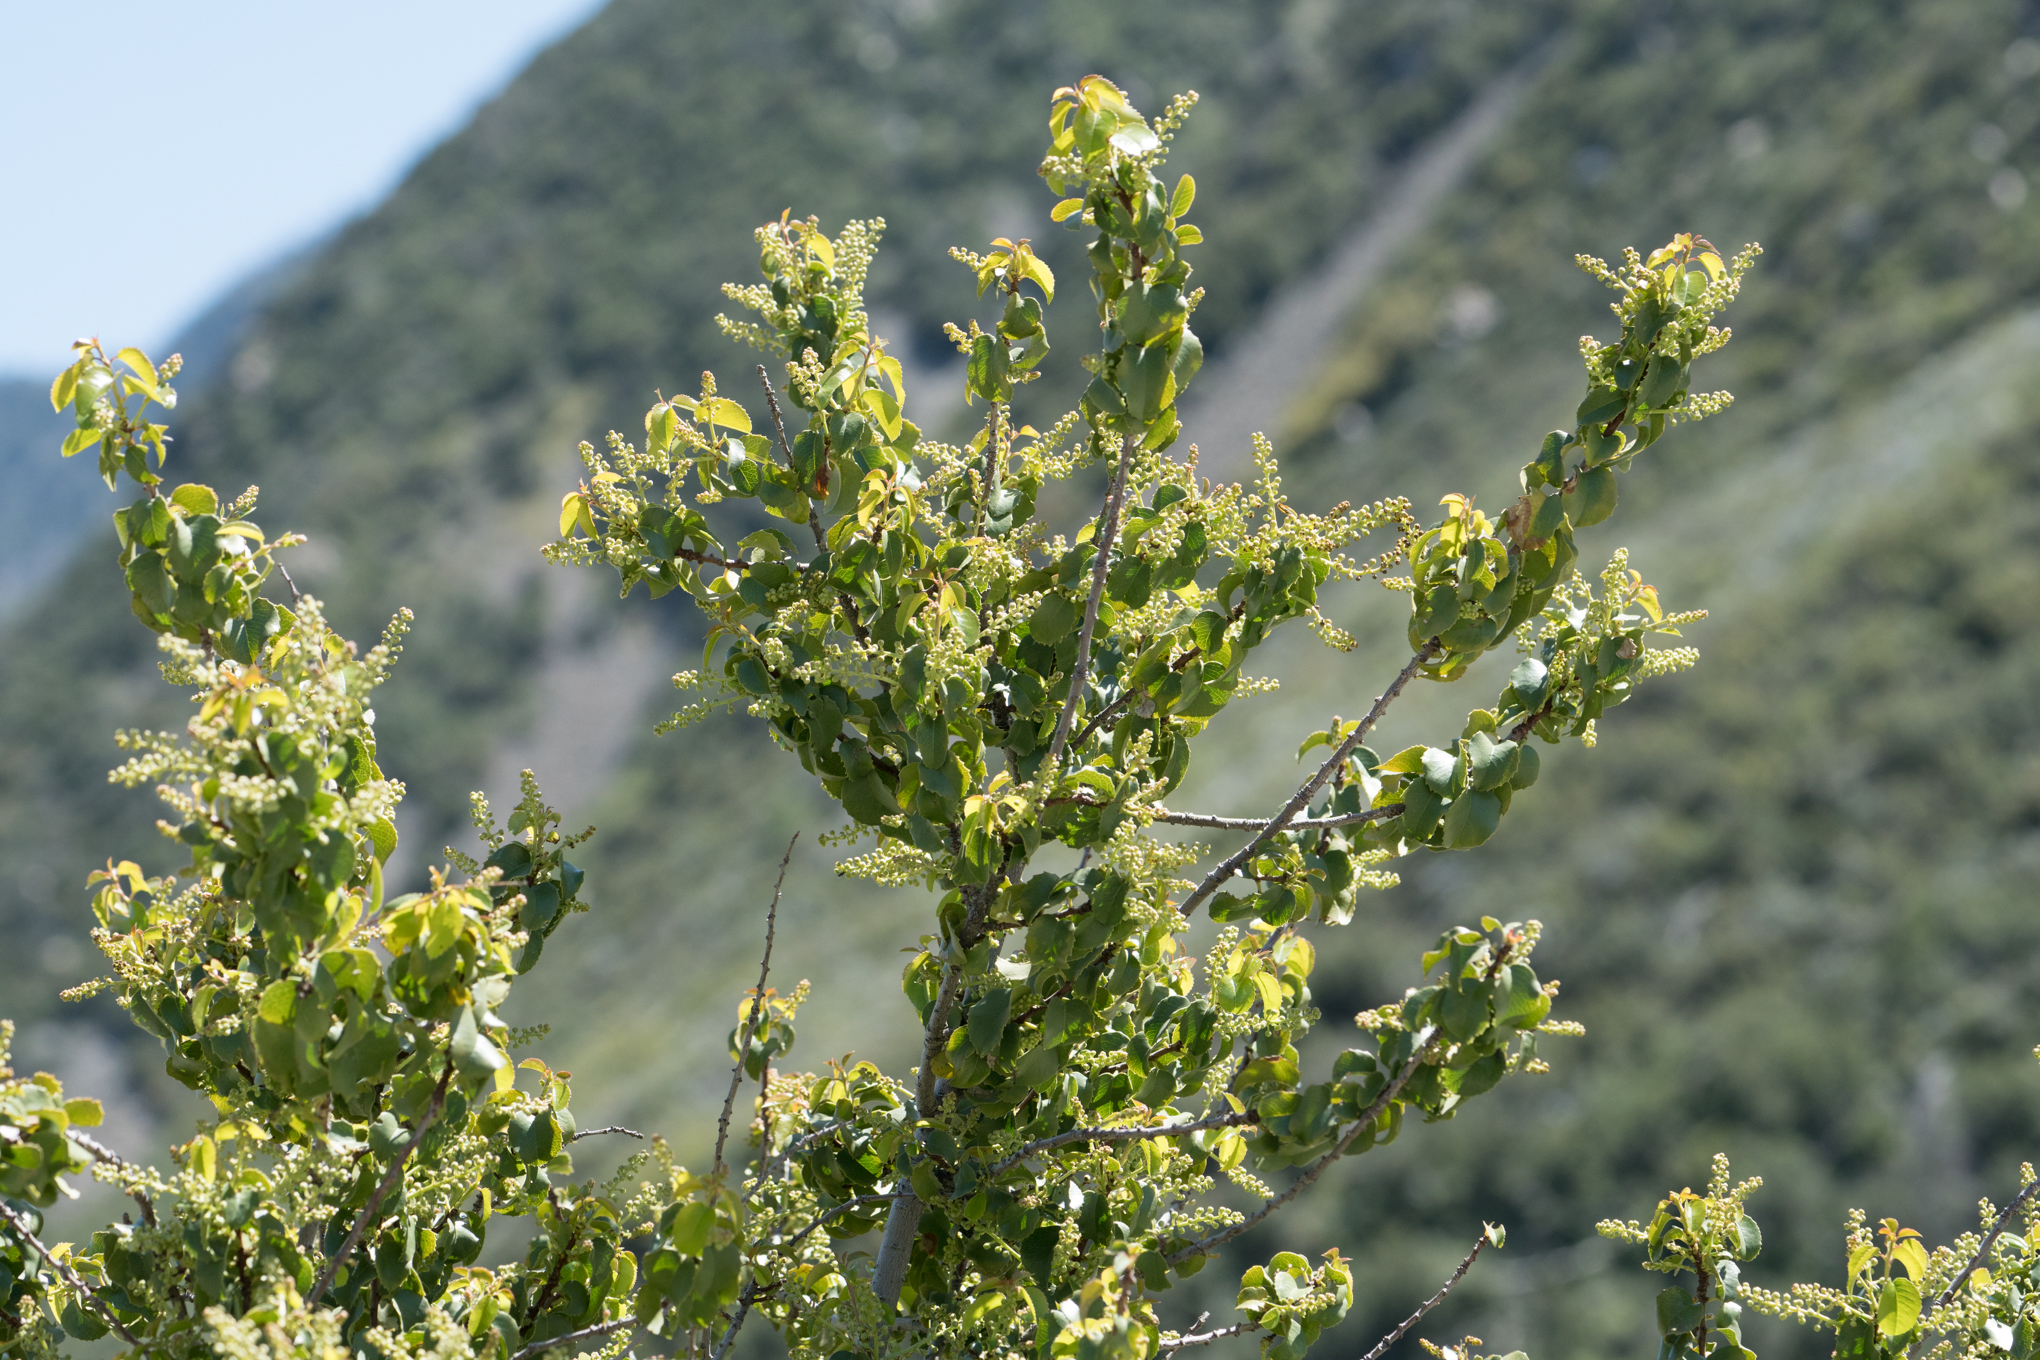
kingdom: Plantae
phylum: Tracheophyta
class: Magnoliopsida
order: Rosales
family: Rosaceae
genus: Prunus
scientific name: Prunus ilicifolia
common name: Hollyleaf cherry
